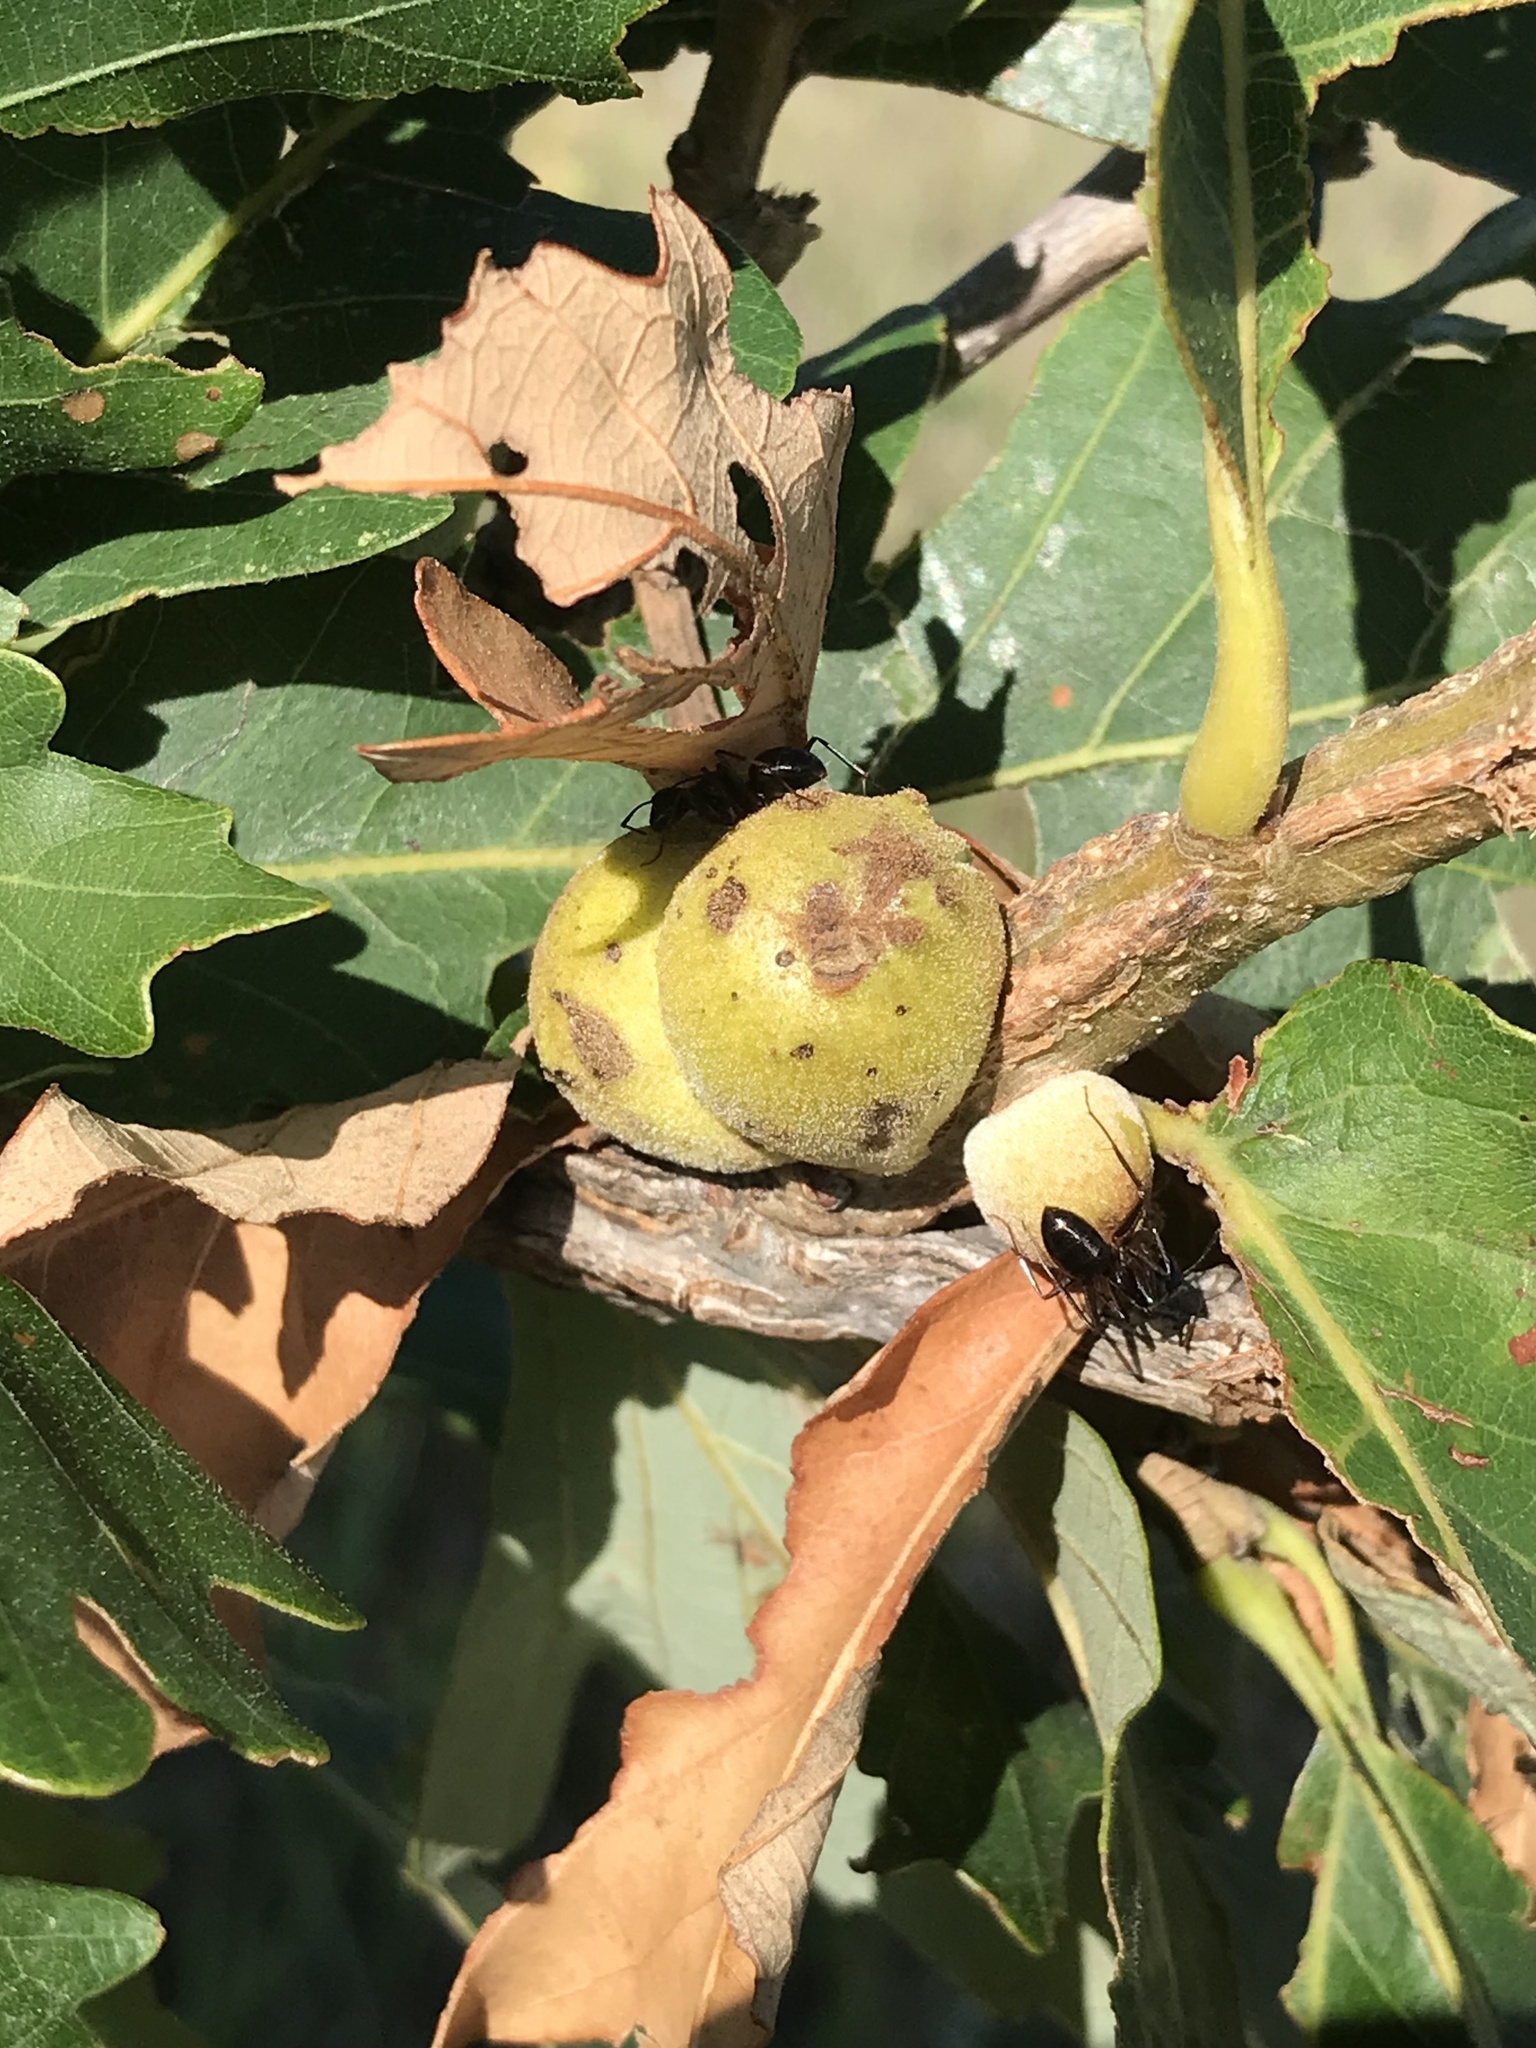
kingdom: Animalia
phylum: Arthropoda
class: Insecta
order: Hymenoptera
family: Cynipidae
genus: Disholcaspis
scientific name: Disholcaspis
